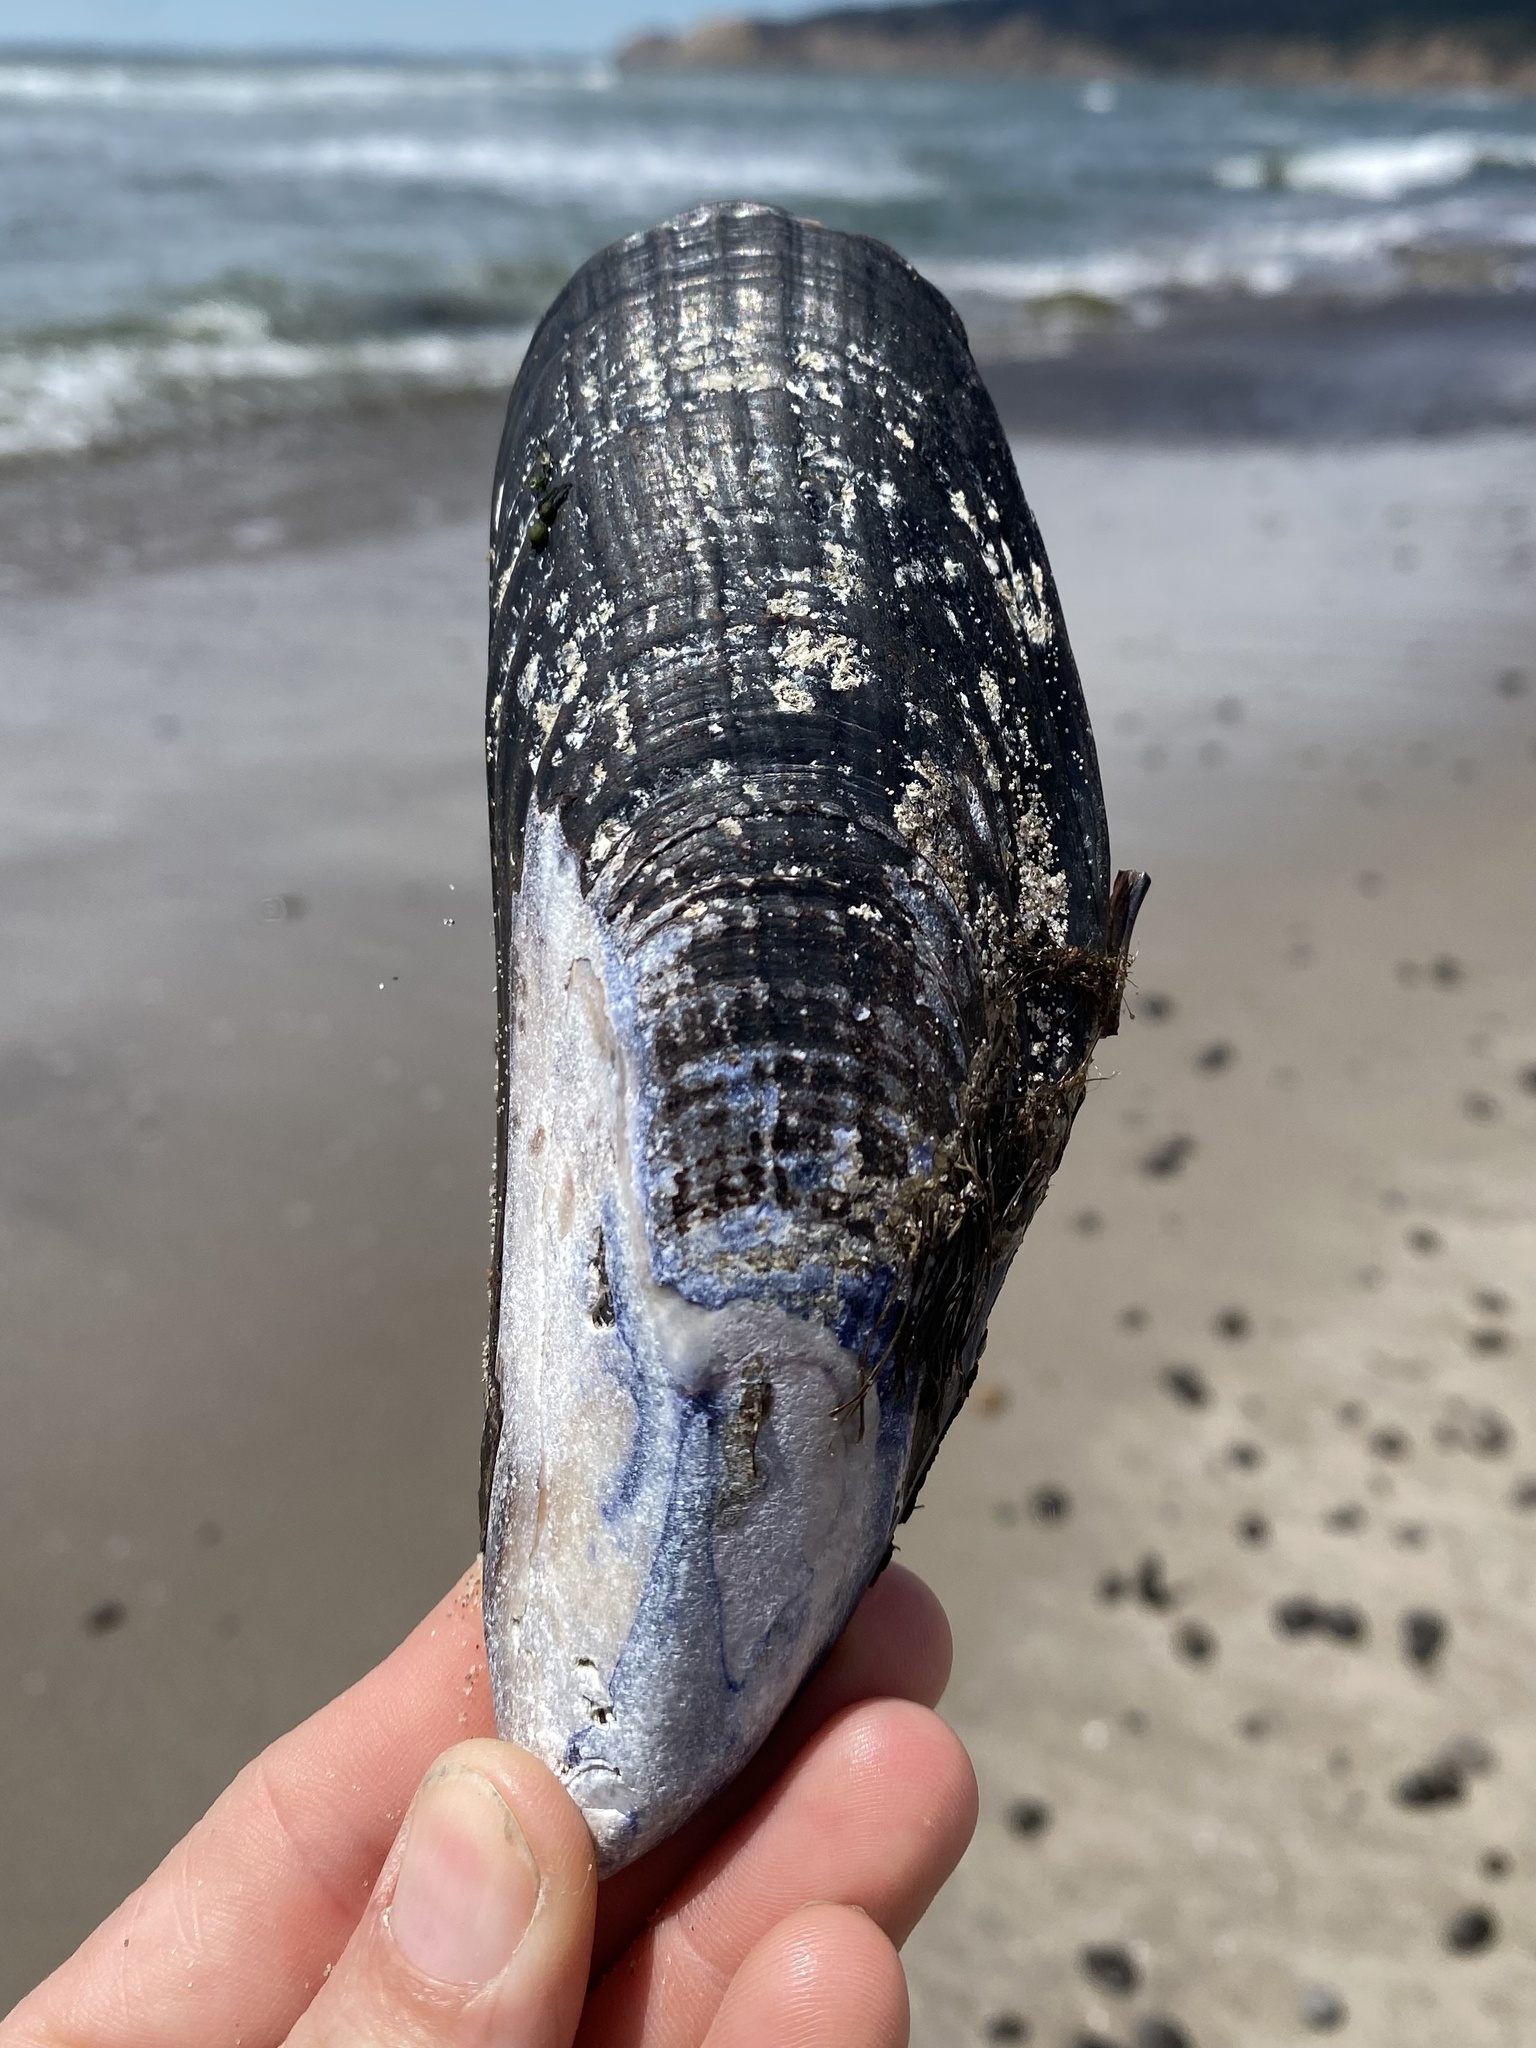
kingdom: Animalia
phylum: Mollusca
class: Bivalvia
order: Mytilida
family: Mytilidae
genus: Mytilus
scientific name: Mytilus californianus
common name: California mussel
